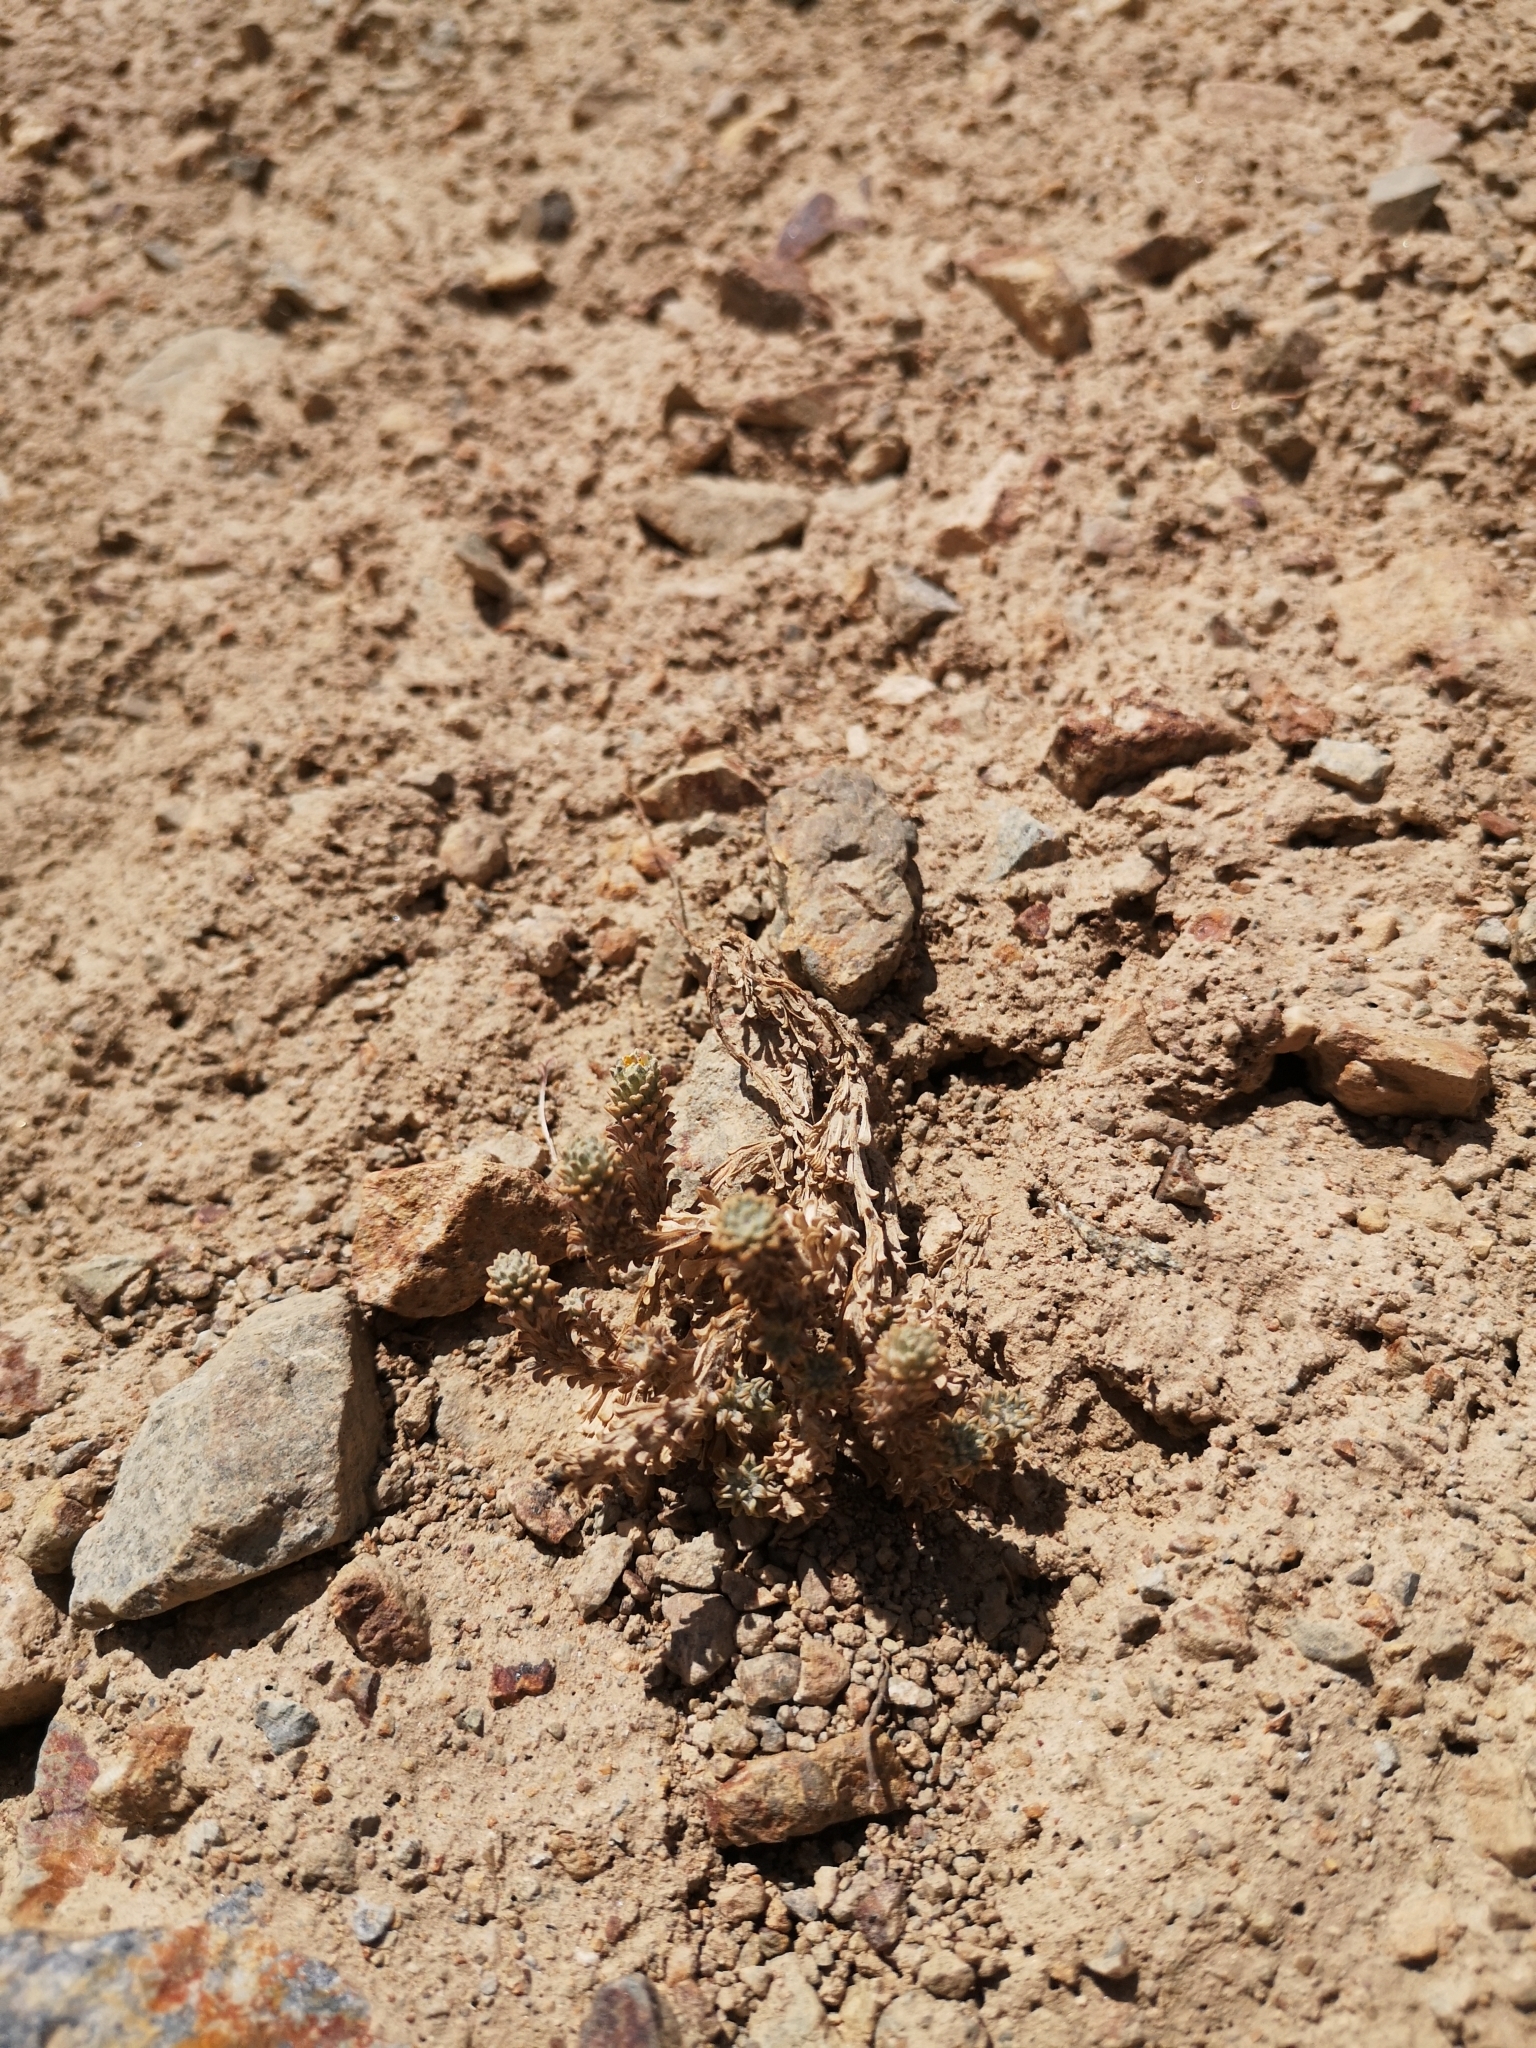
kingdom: Plantae
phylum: Tracheophyta
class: Magnoliopsida
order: Asterales
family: Asteraceae
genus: Oriastrum
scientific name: Oriastrum lycopodioides
